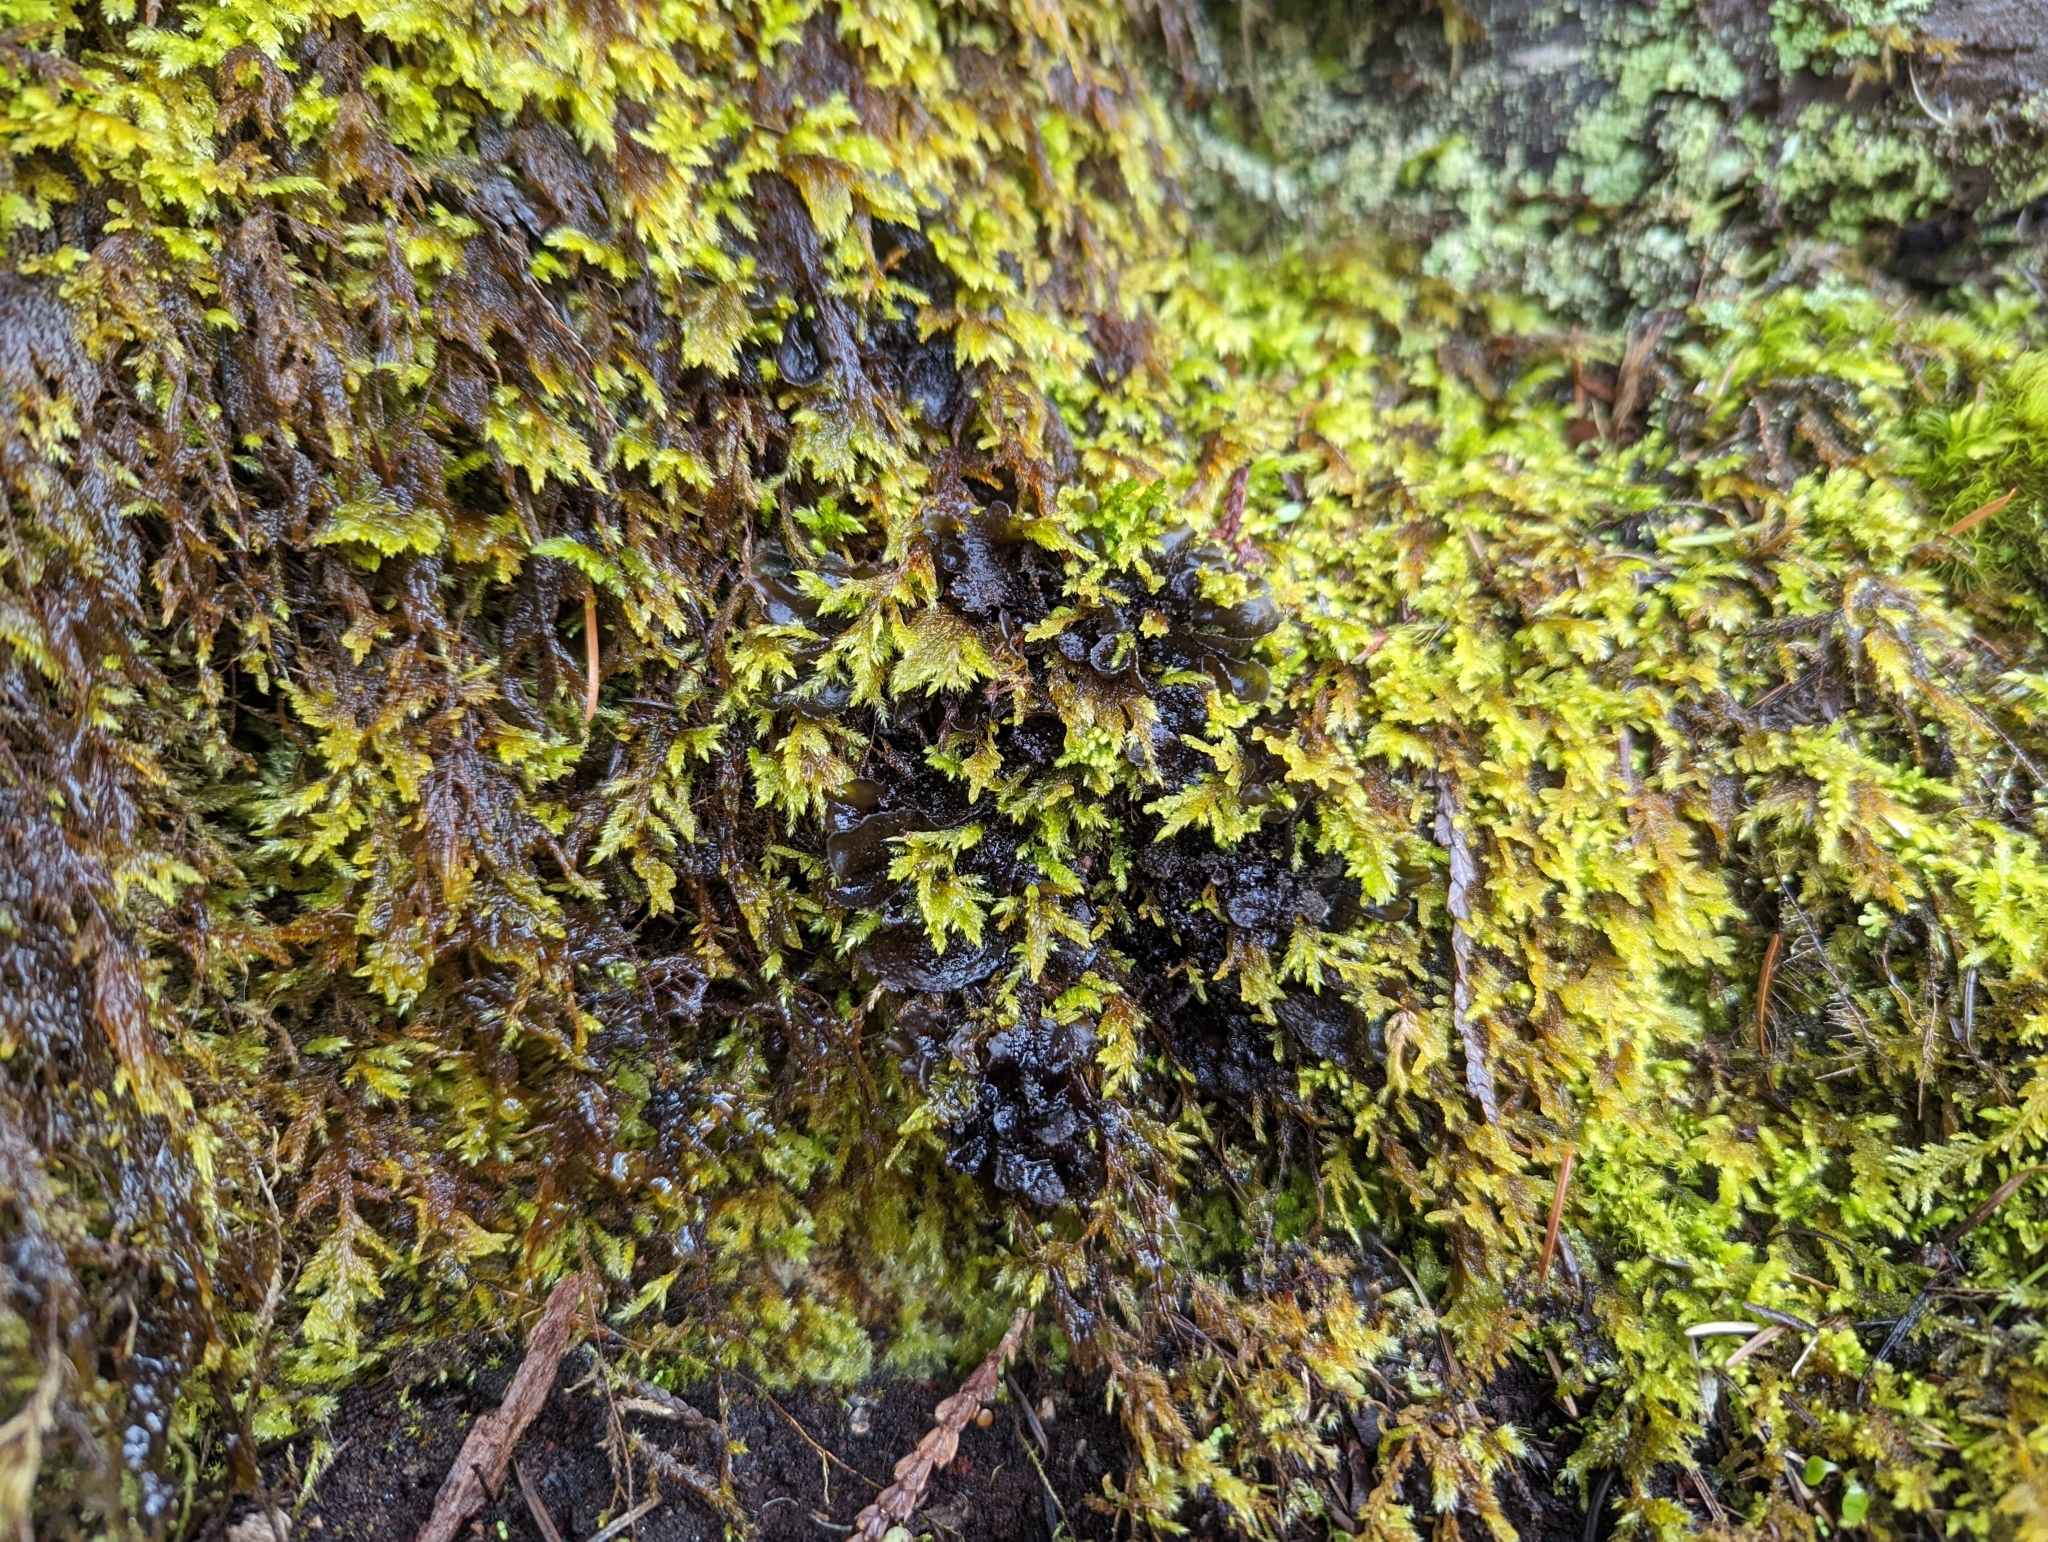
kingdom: Fungi
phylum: Ascomycota
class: Lecanoromycetes
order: Peltigerales
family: Collemataceae
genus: Scytinium
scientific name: Scytinium platynum
